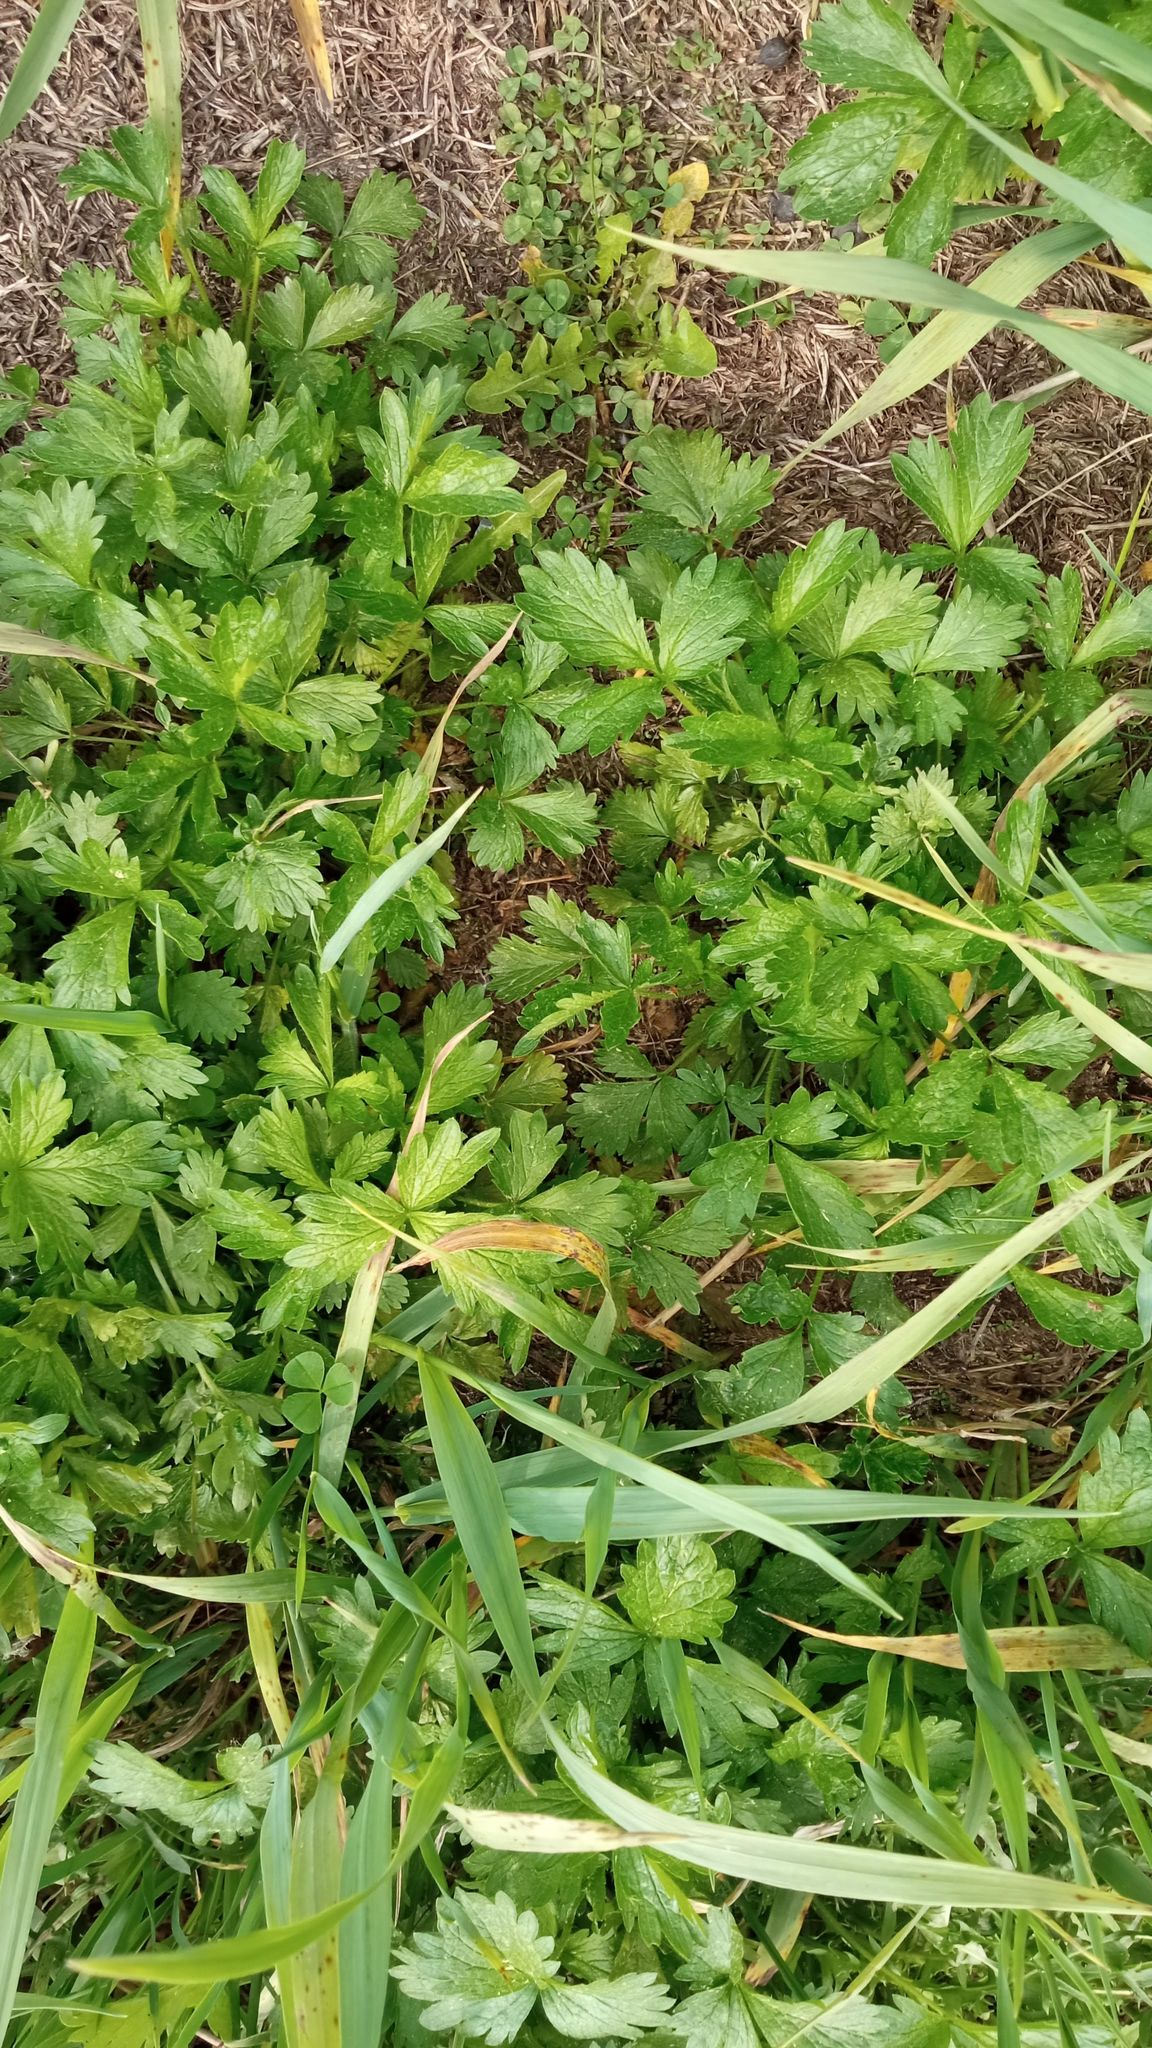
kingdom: Plantae
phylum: Tracheophyta
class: Magnoliopsida
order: Rosales
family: Rosaceae
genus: Potentilla
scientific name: Potentilla norvegica
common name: Ternate-leaved cinquefoil
